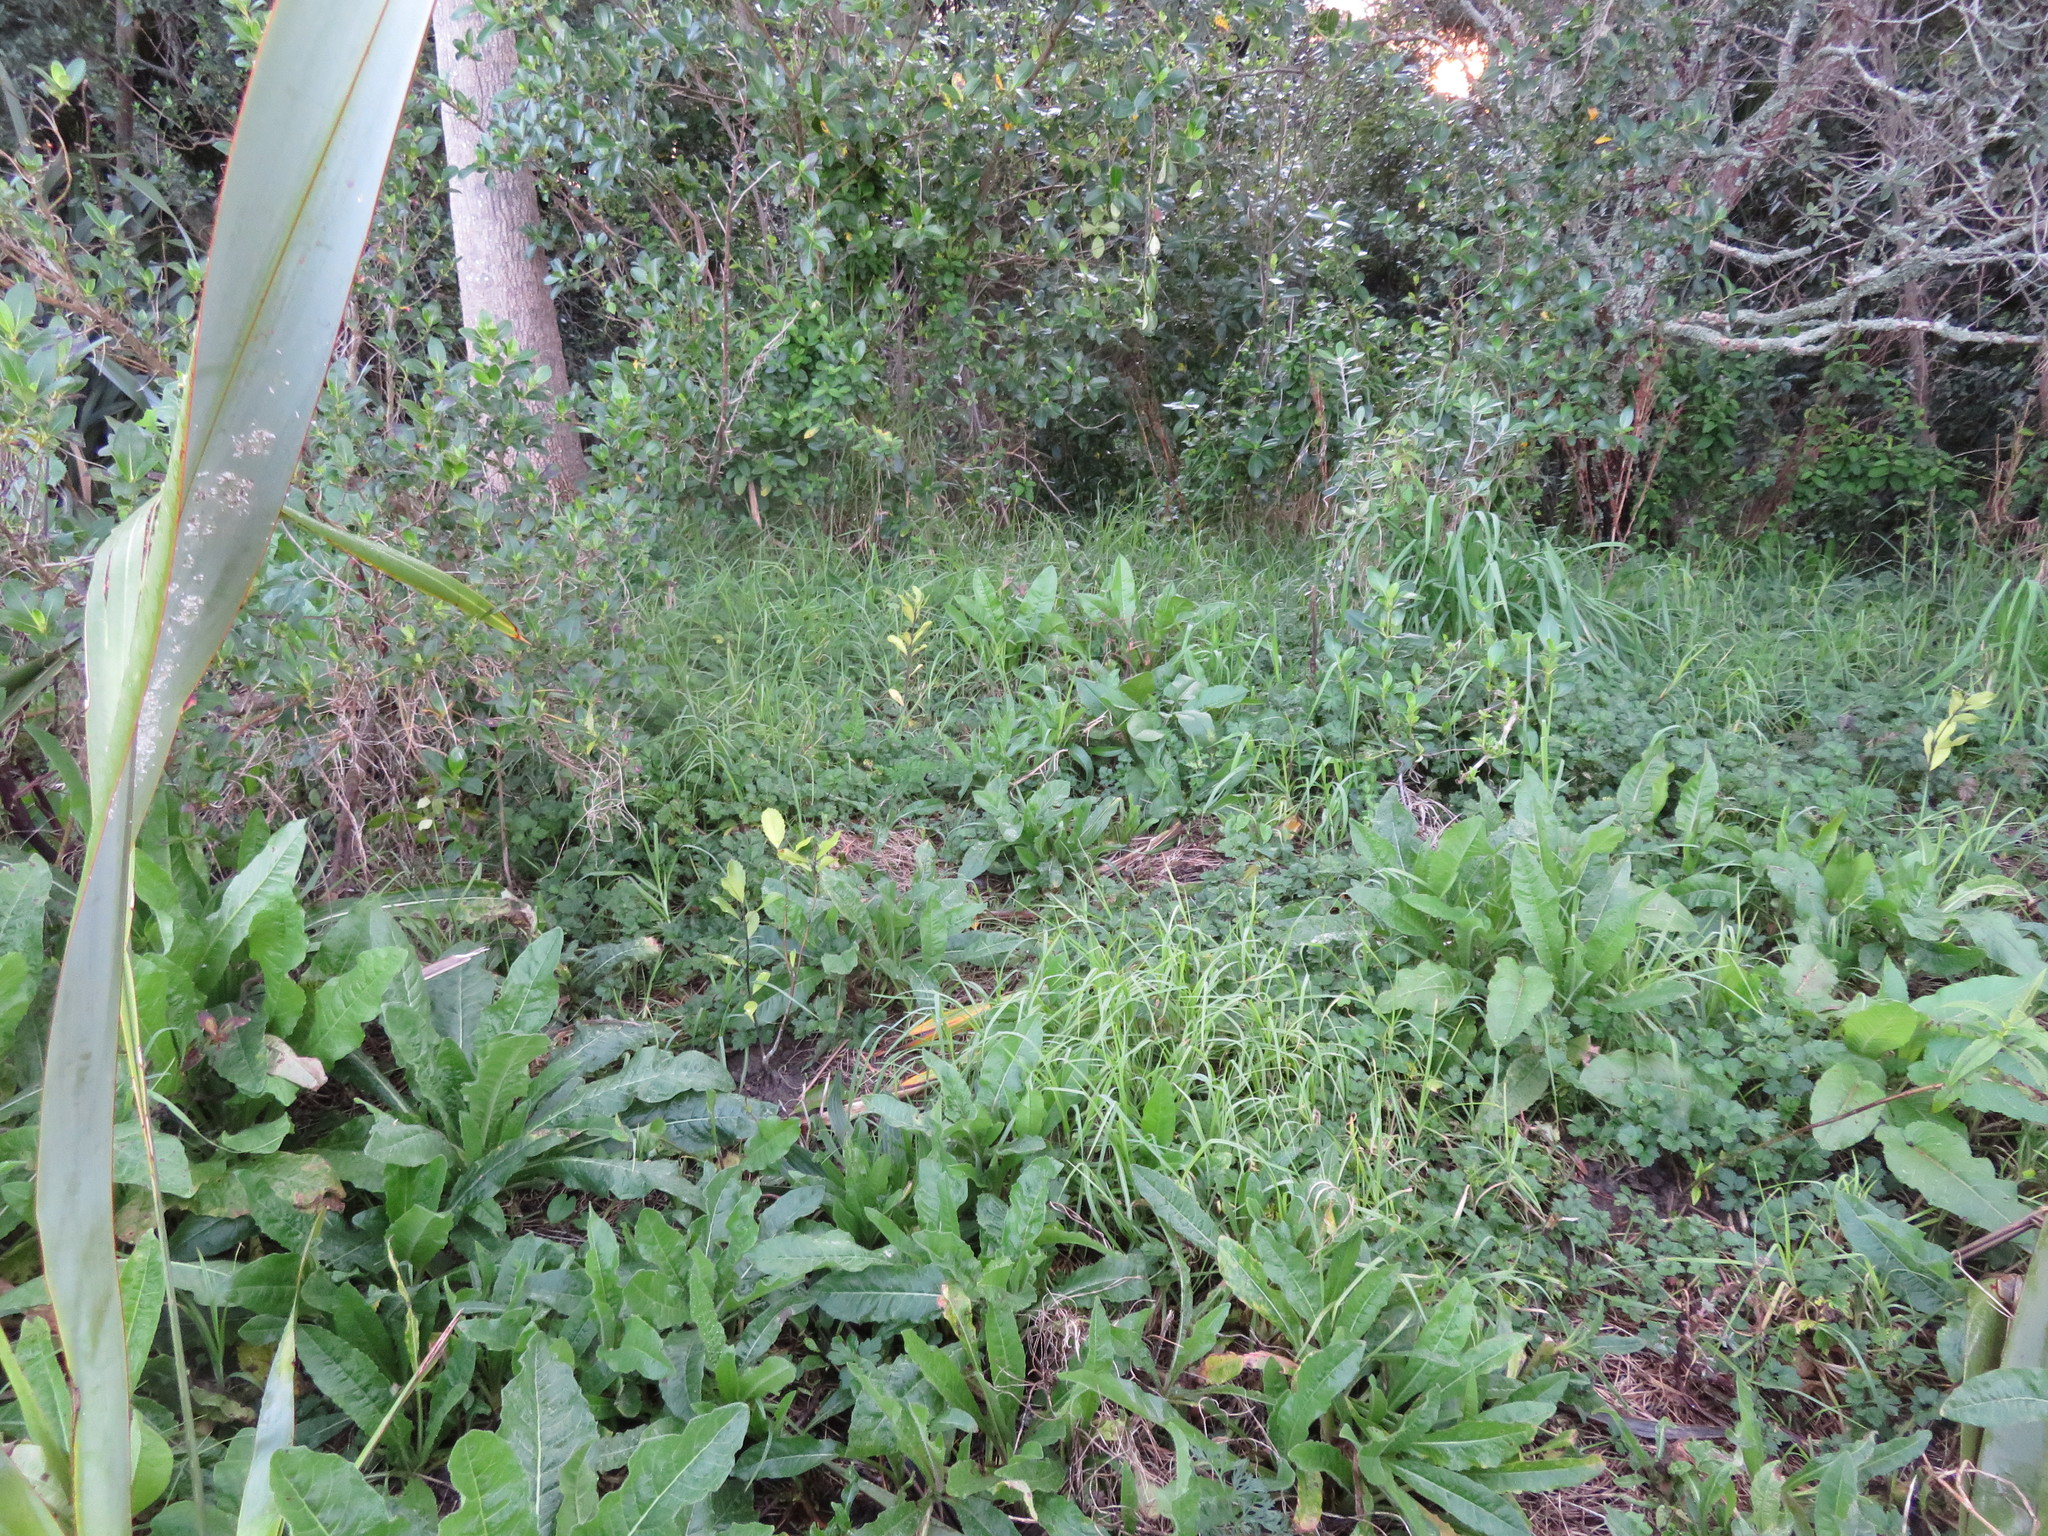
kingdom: Plantae
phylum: Tracheophyta
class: Magnoliopsida
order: Asterales
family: Asteraceae
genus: Helminthotheca
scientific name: Helminthotheca echioides
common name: Ox-tongue
